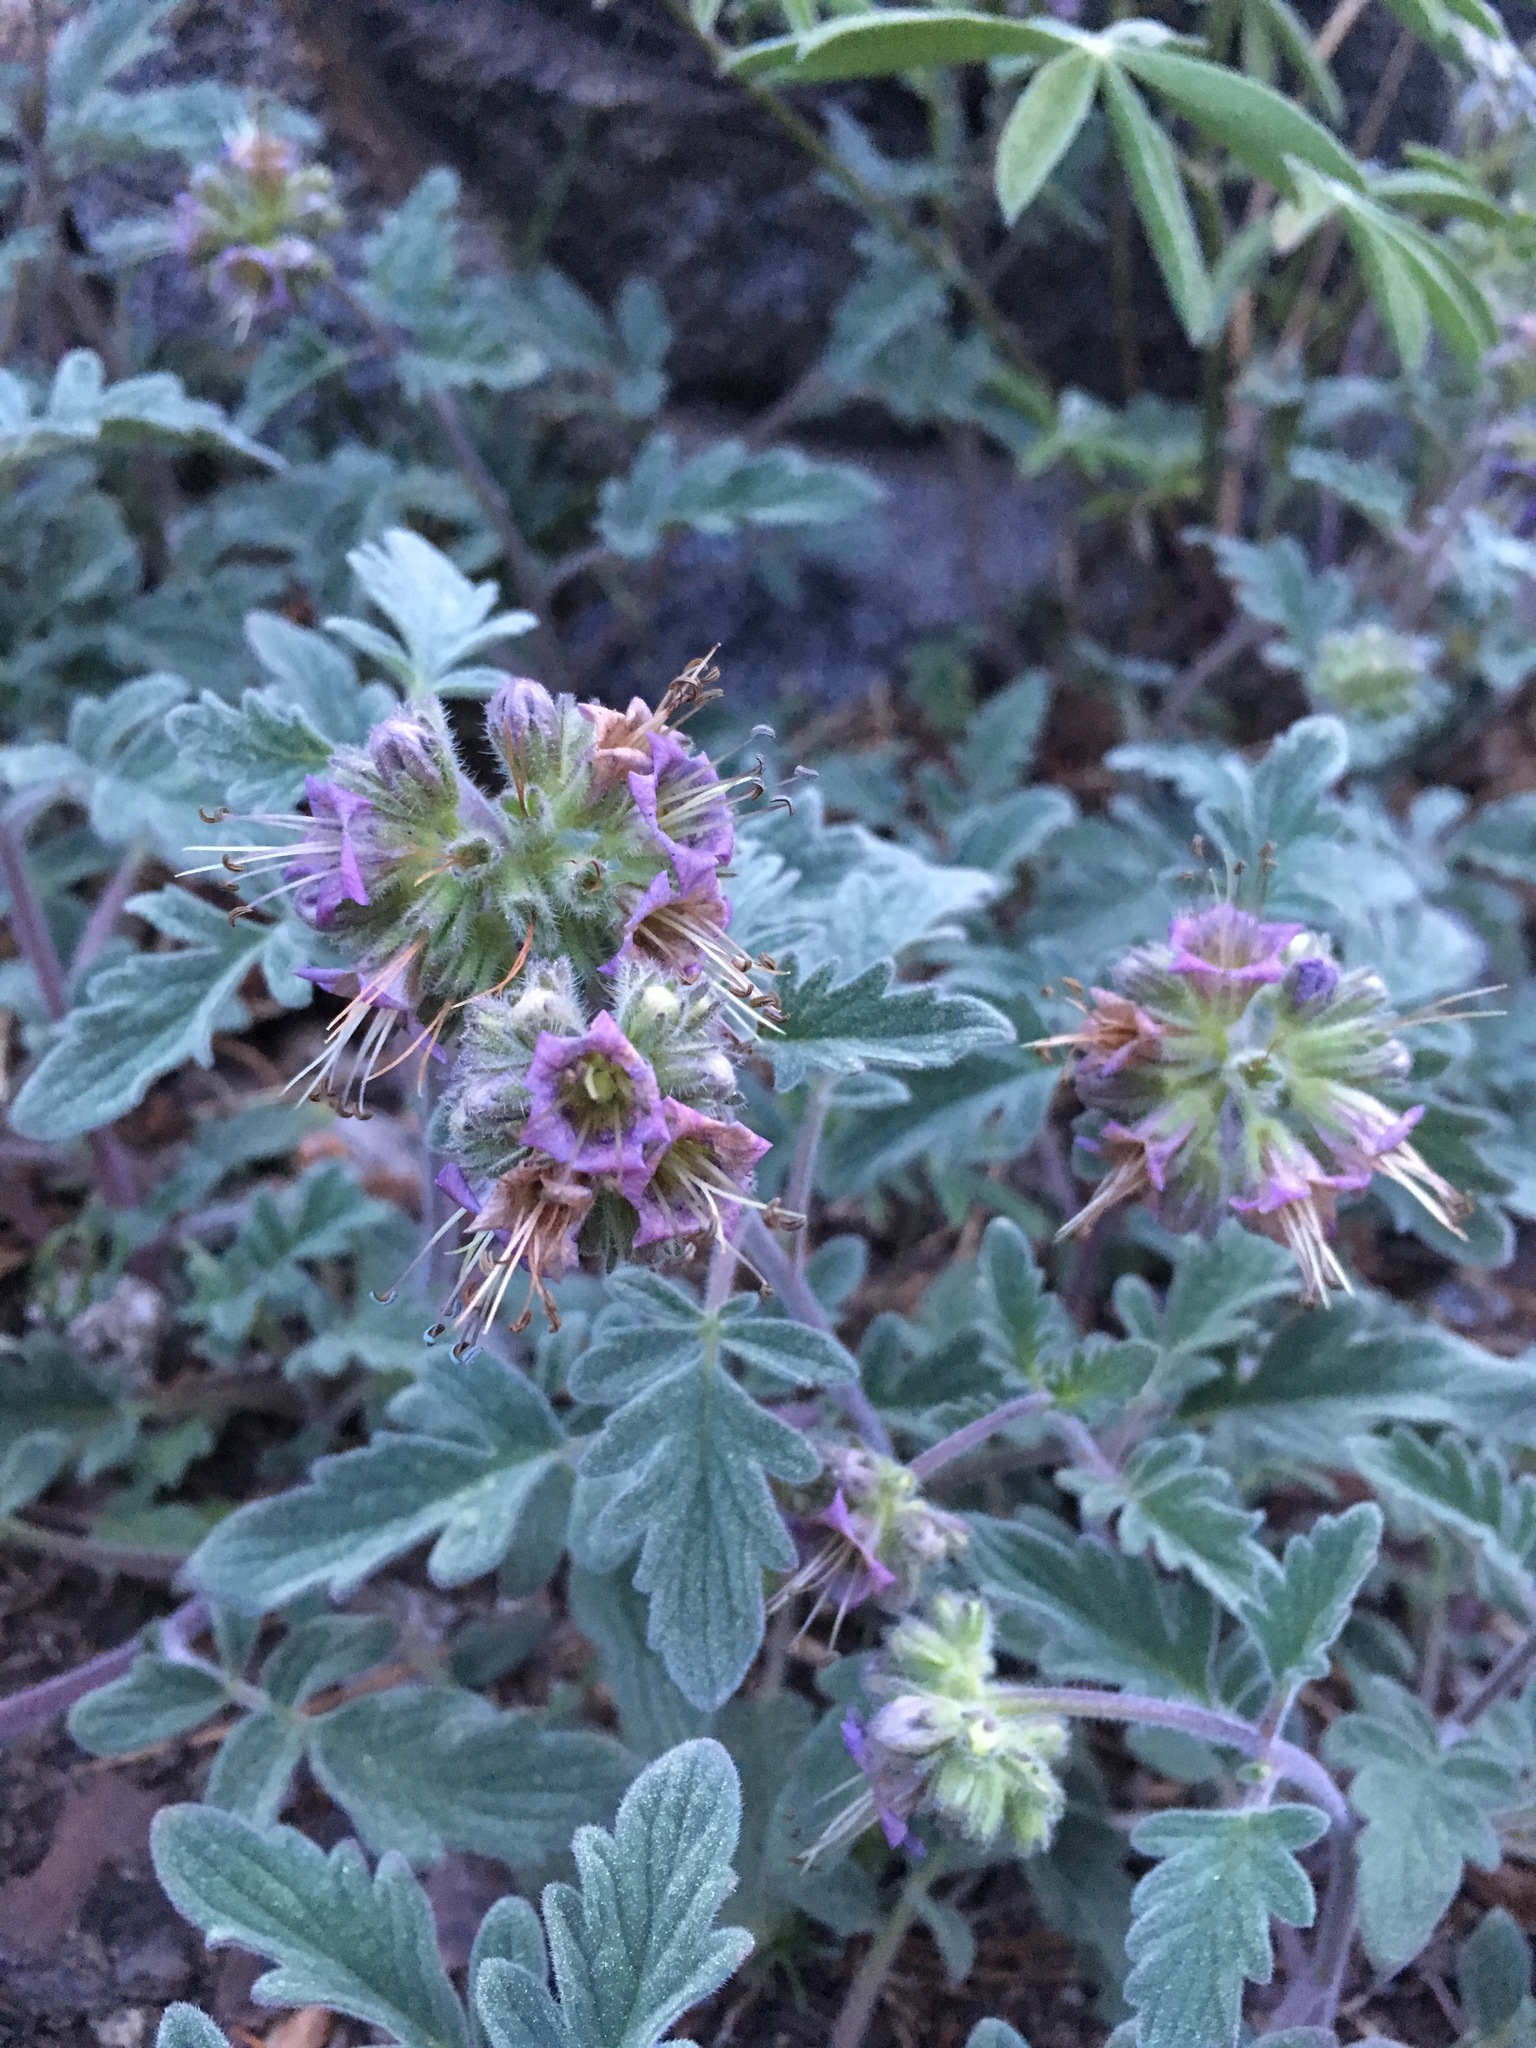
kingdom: Plantae
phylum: Tracheophyta
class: Magnoliopsida
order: Boraginales
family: Hydrophyllaceae
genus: Phacelia
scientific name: Phacelia hydrophylloides
